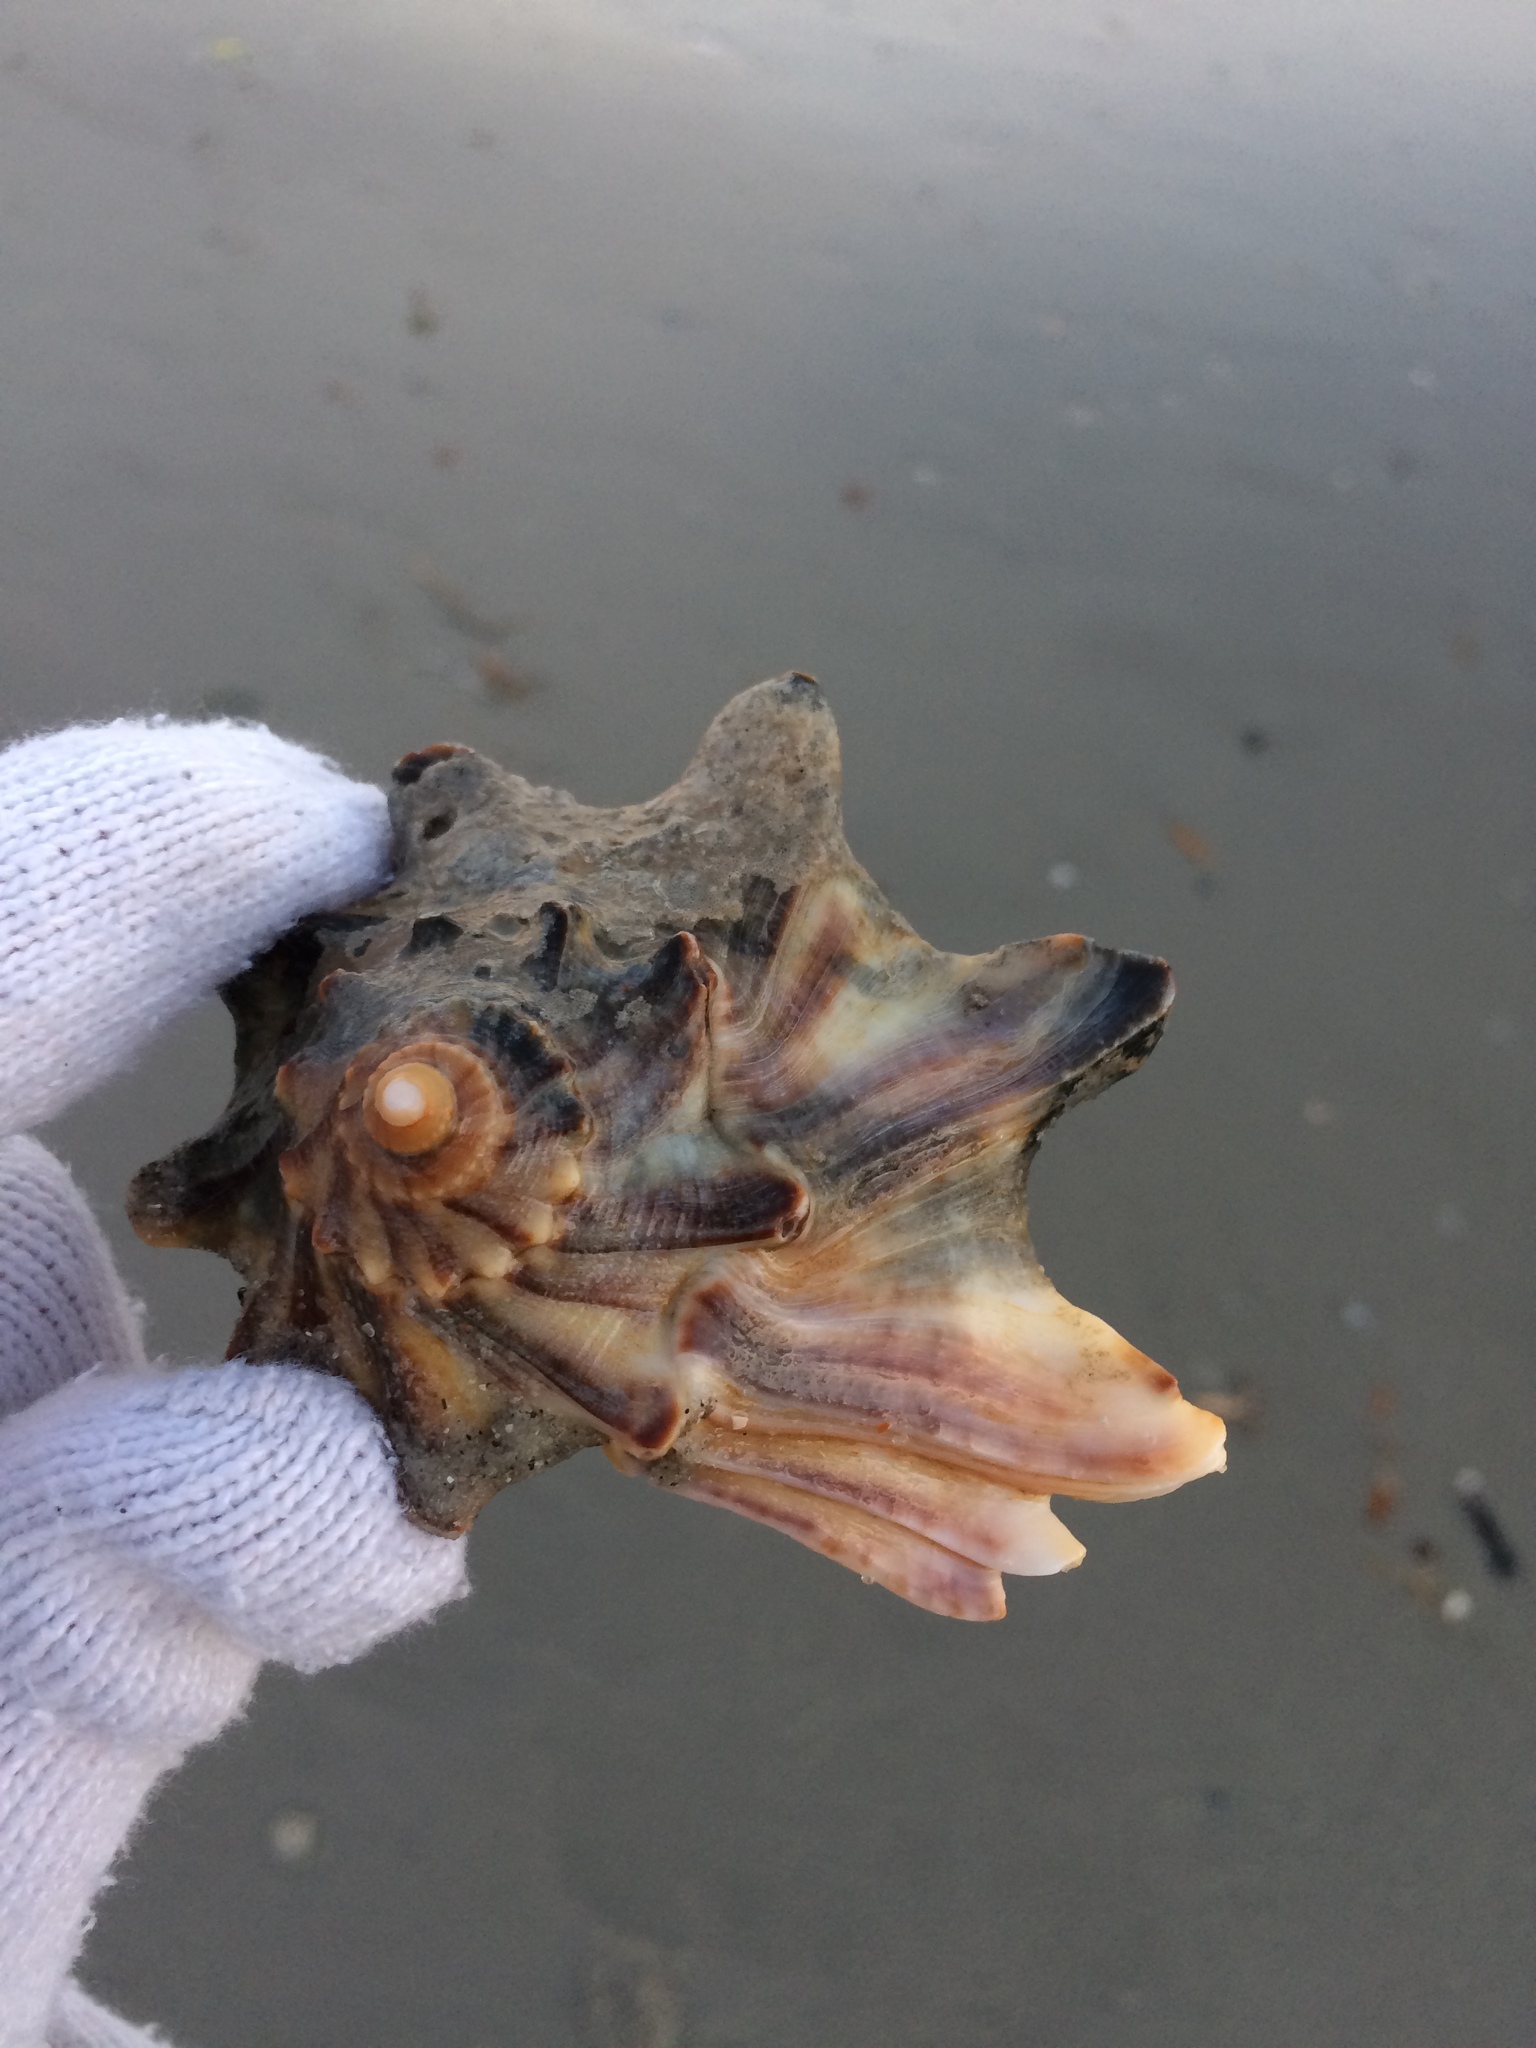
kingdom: Animalia
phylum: Mollusca
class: Gastropoda
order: Neogastropoda
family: Busyconidae
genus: Busycon
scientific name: Busycon carica
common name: Knobbed whelk
